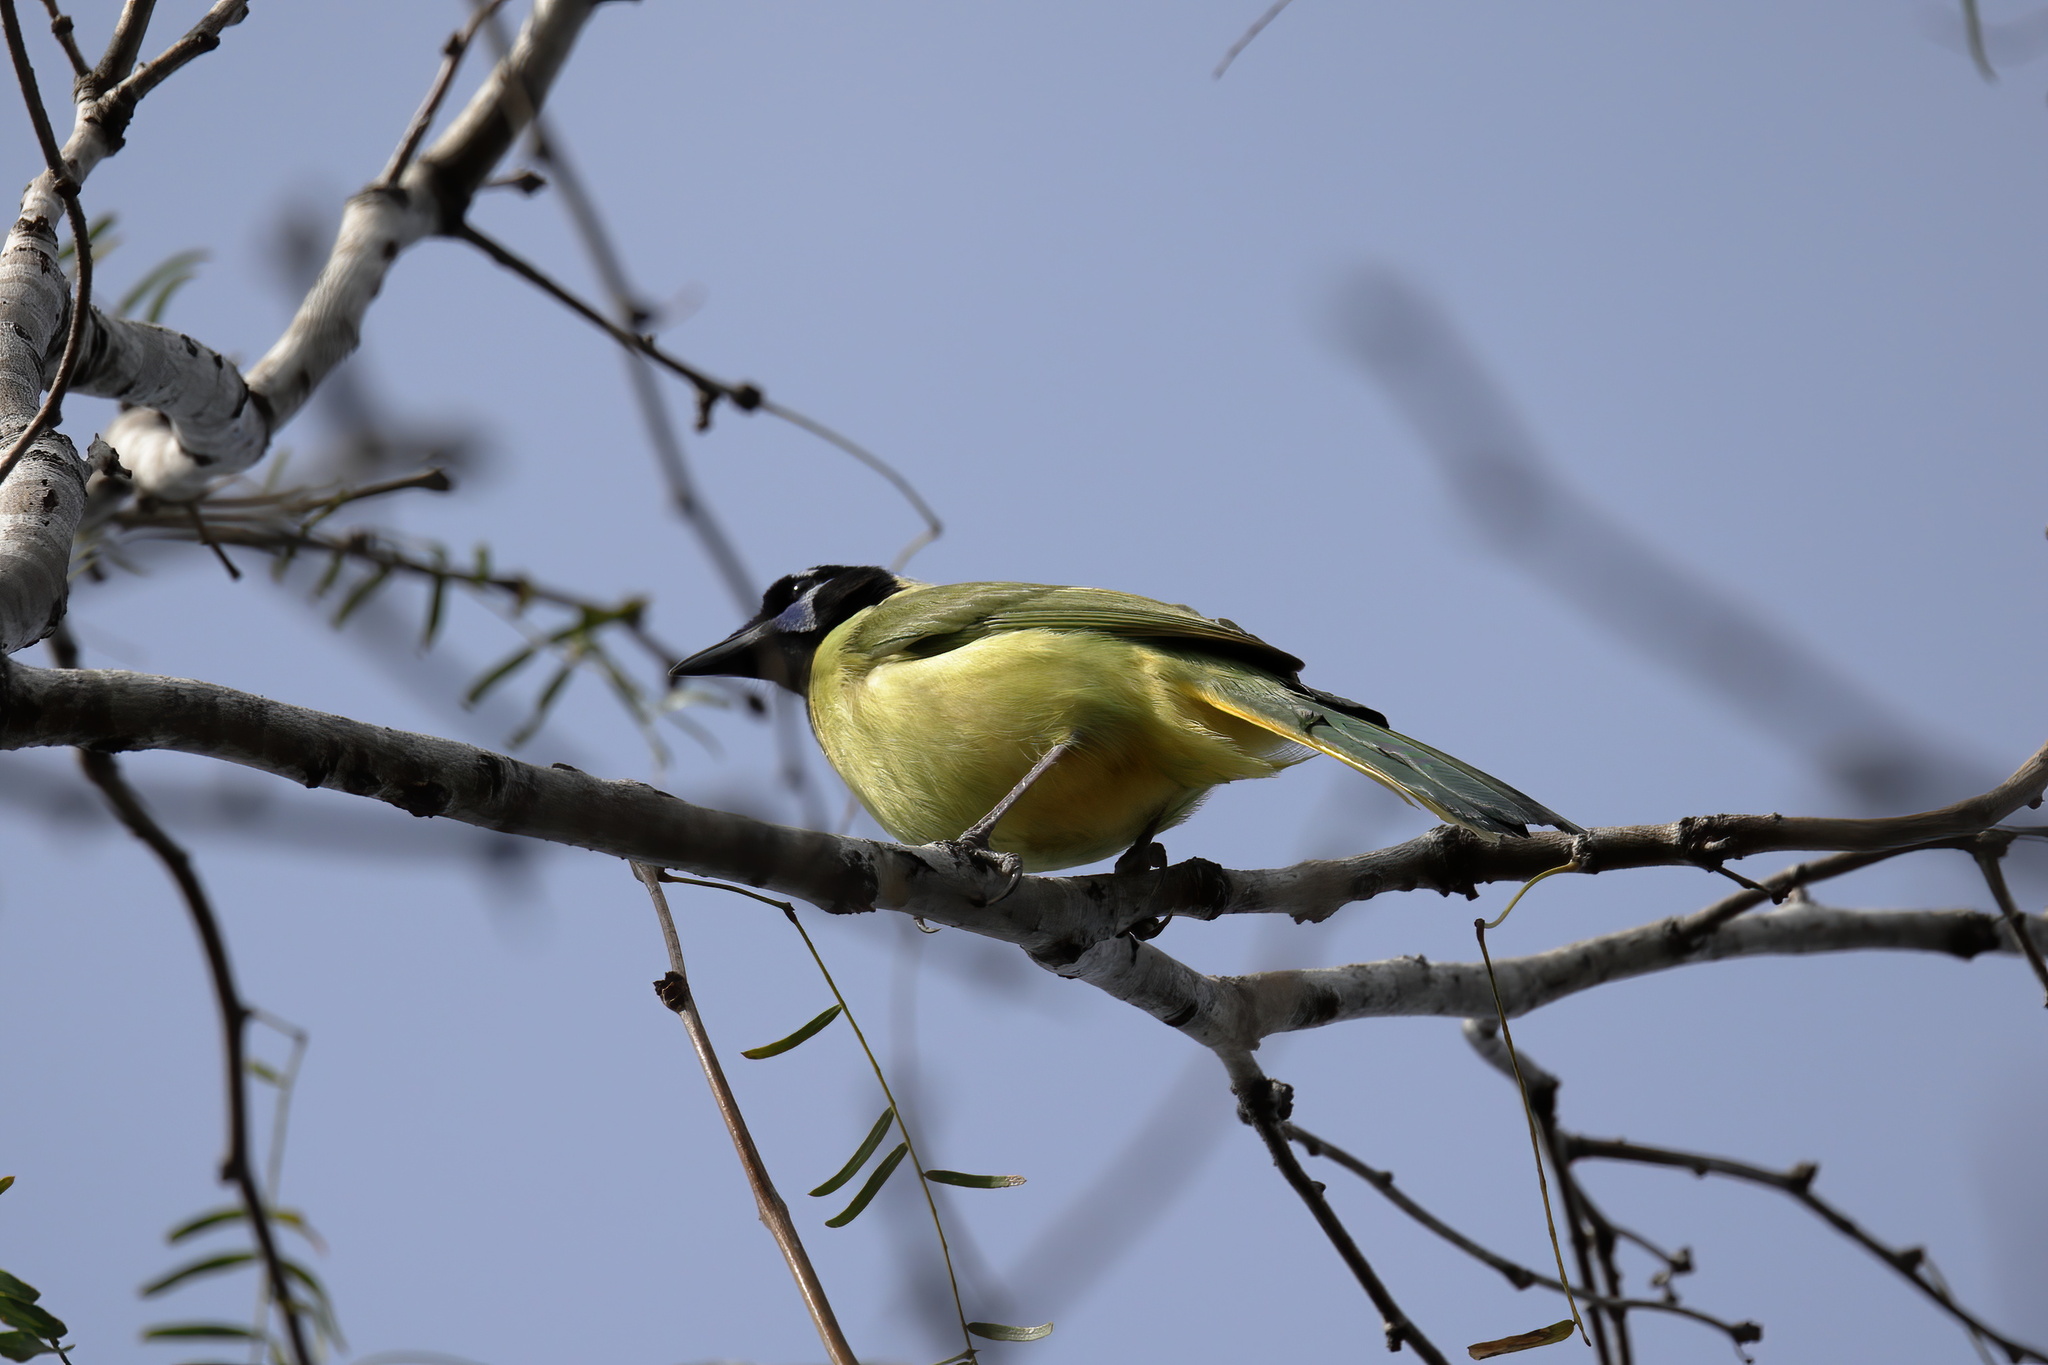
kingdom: Animalia
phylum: Chordata
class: Aves
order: Passeriformes
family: Corvidae
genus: Cyanocorax
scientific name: Cyanocorax yncas
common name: Green jay
